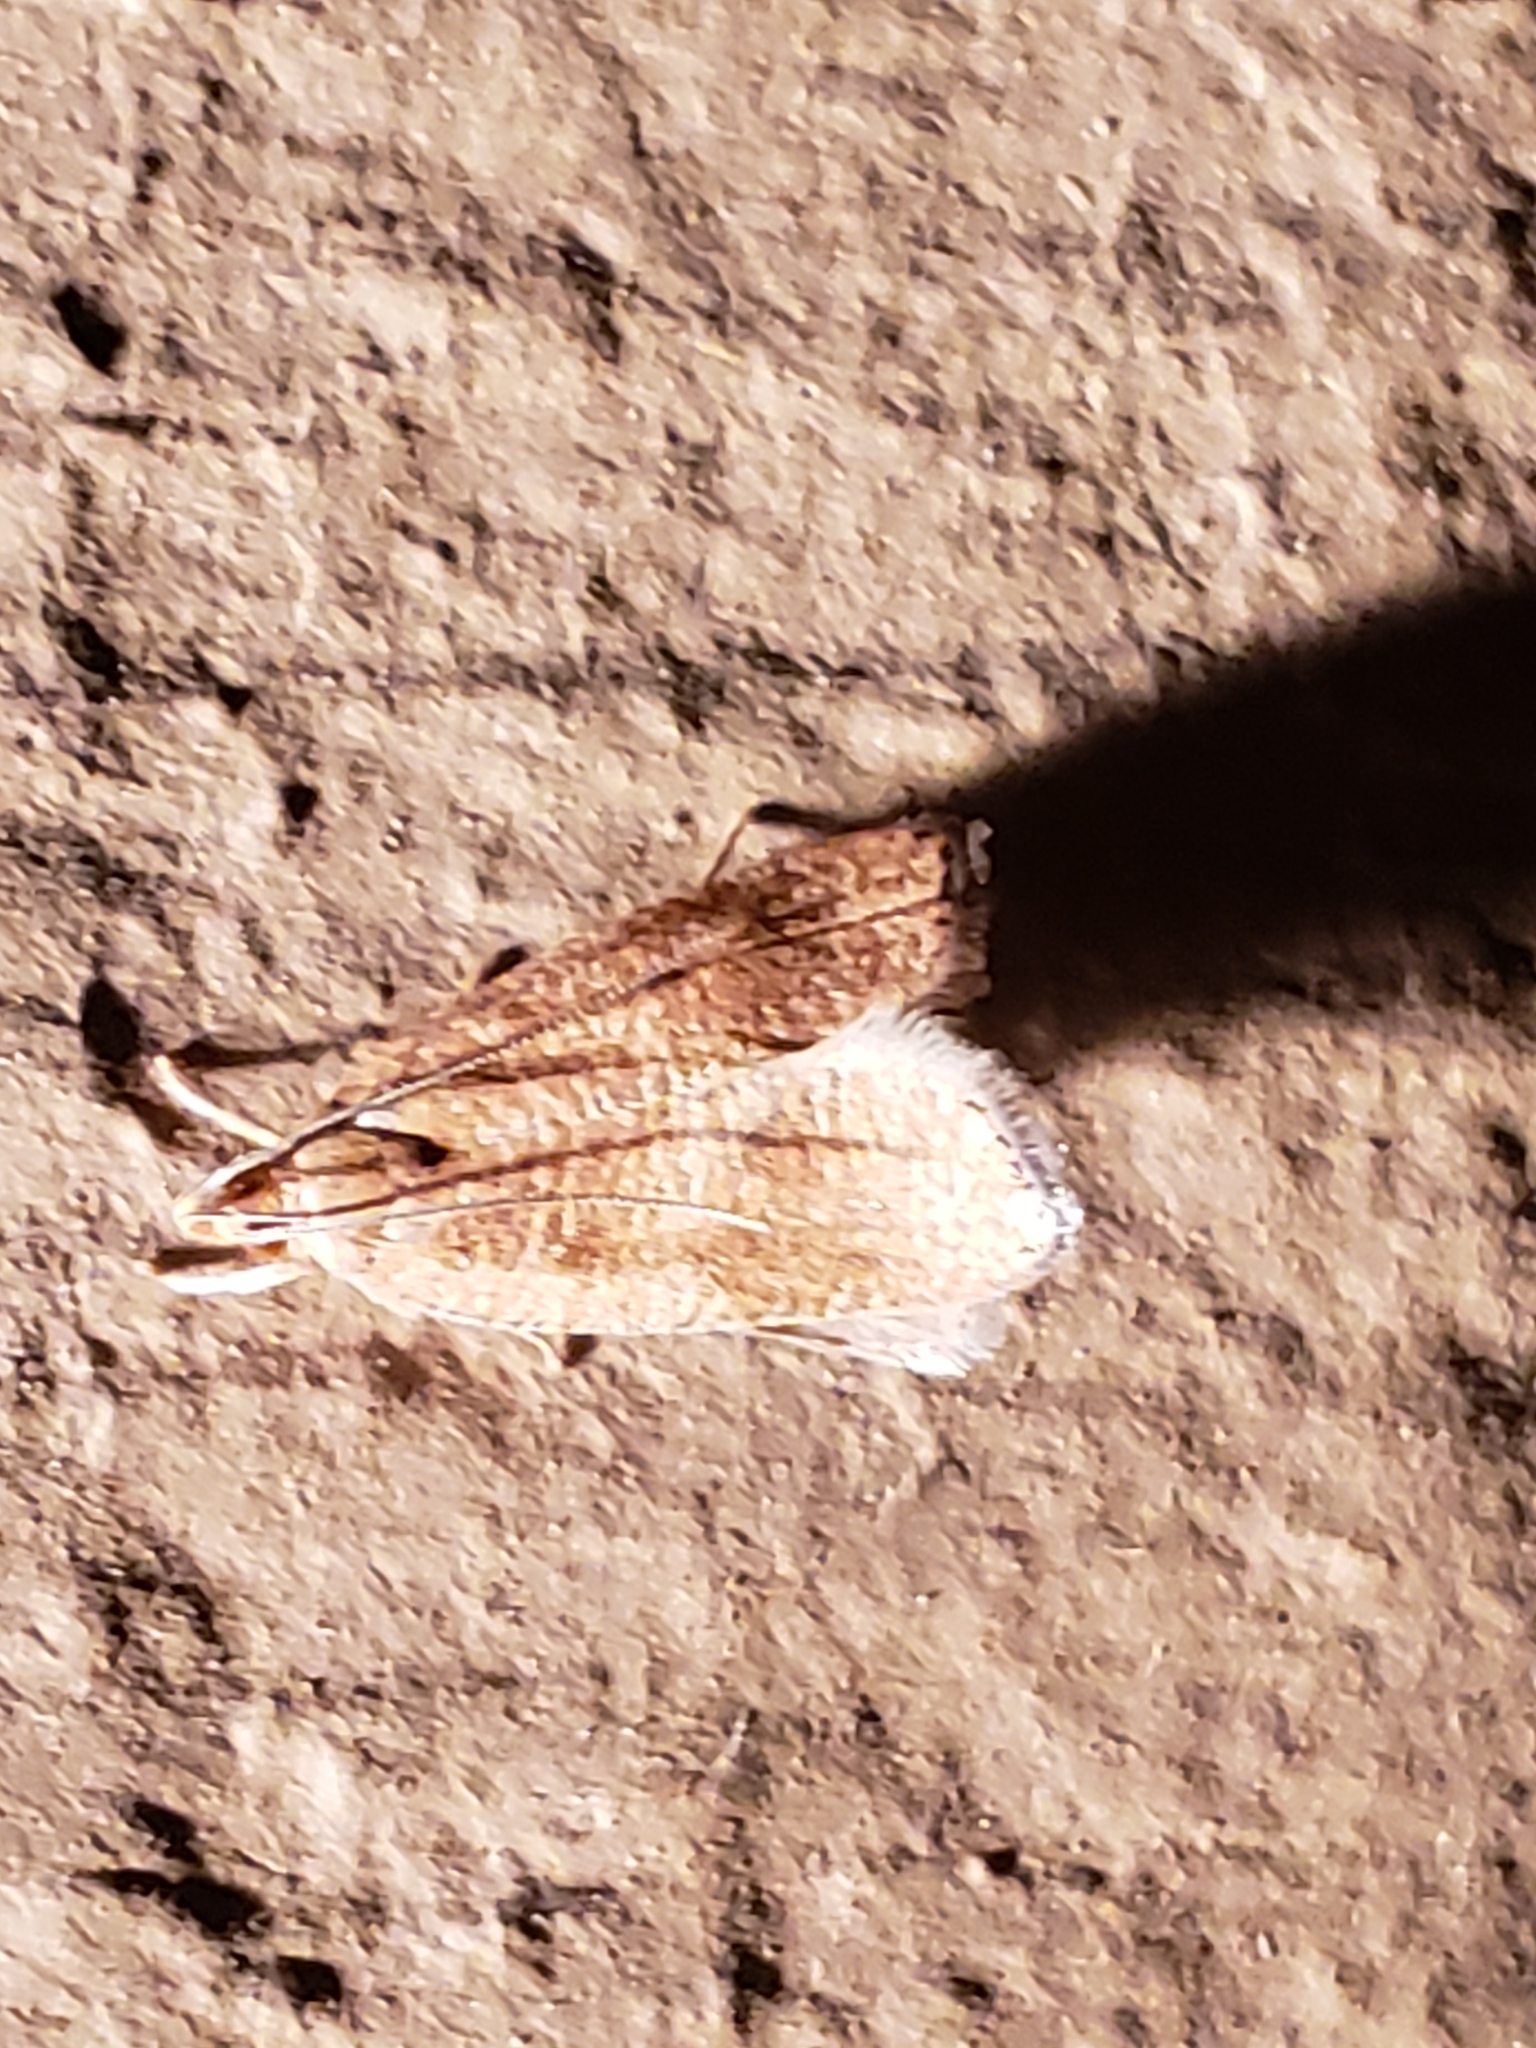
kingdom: Animalia
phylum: Arthropoda
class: Insecta
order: Lepidoptera
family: Depressariidae
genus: Psilocorsis
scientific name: Psilocorsis cryptolechiella
